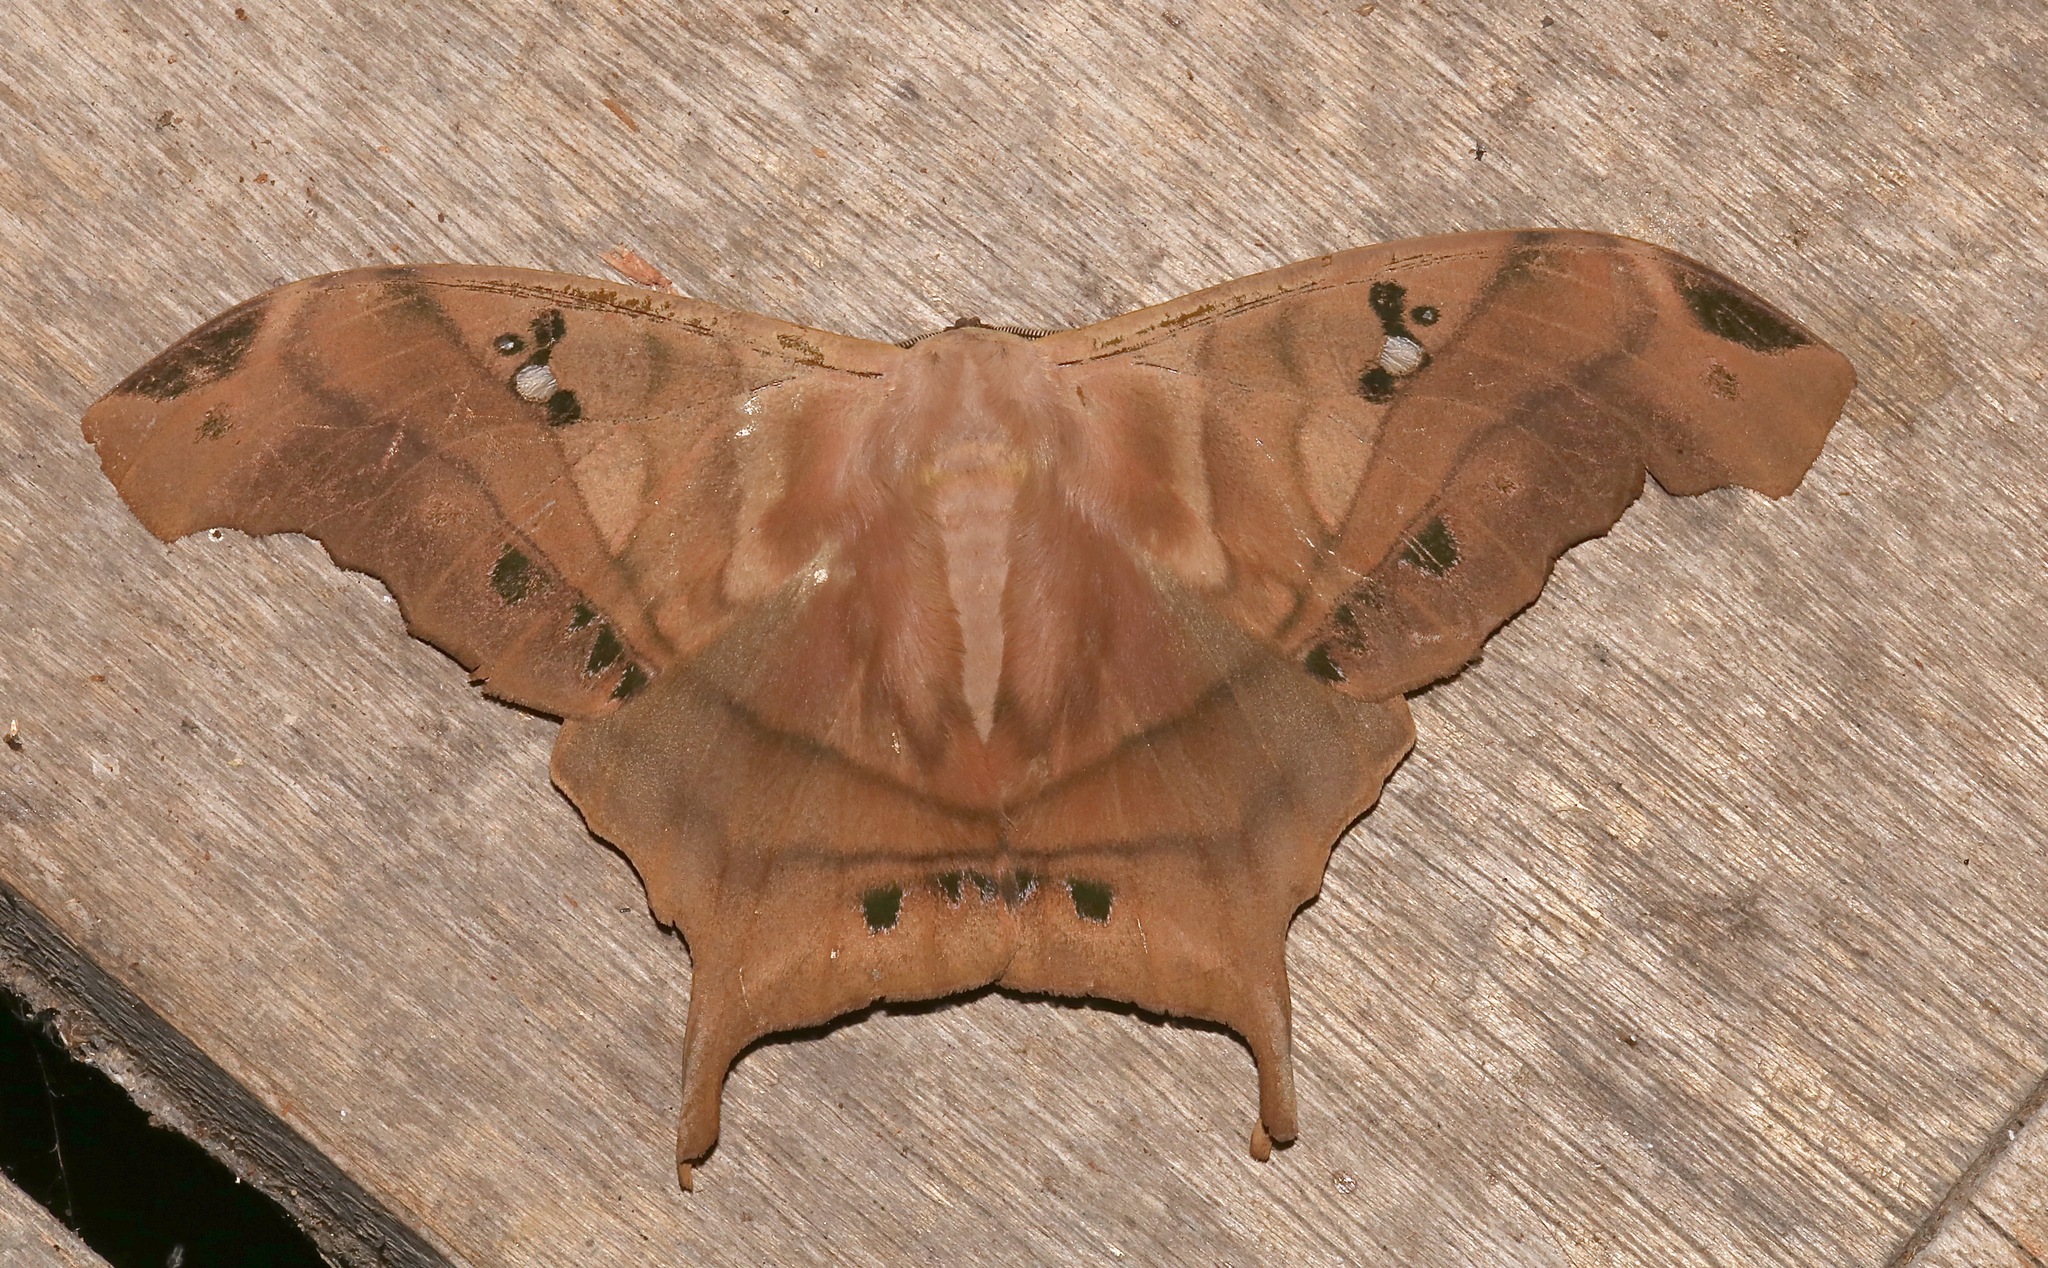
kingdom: Animalia
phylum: Arthropoda
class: Insecta
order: Lepidoptera
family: Saturniidae
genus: Titaea
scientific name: Titaea tamerlan
